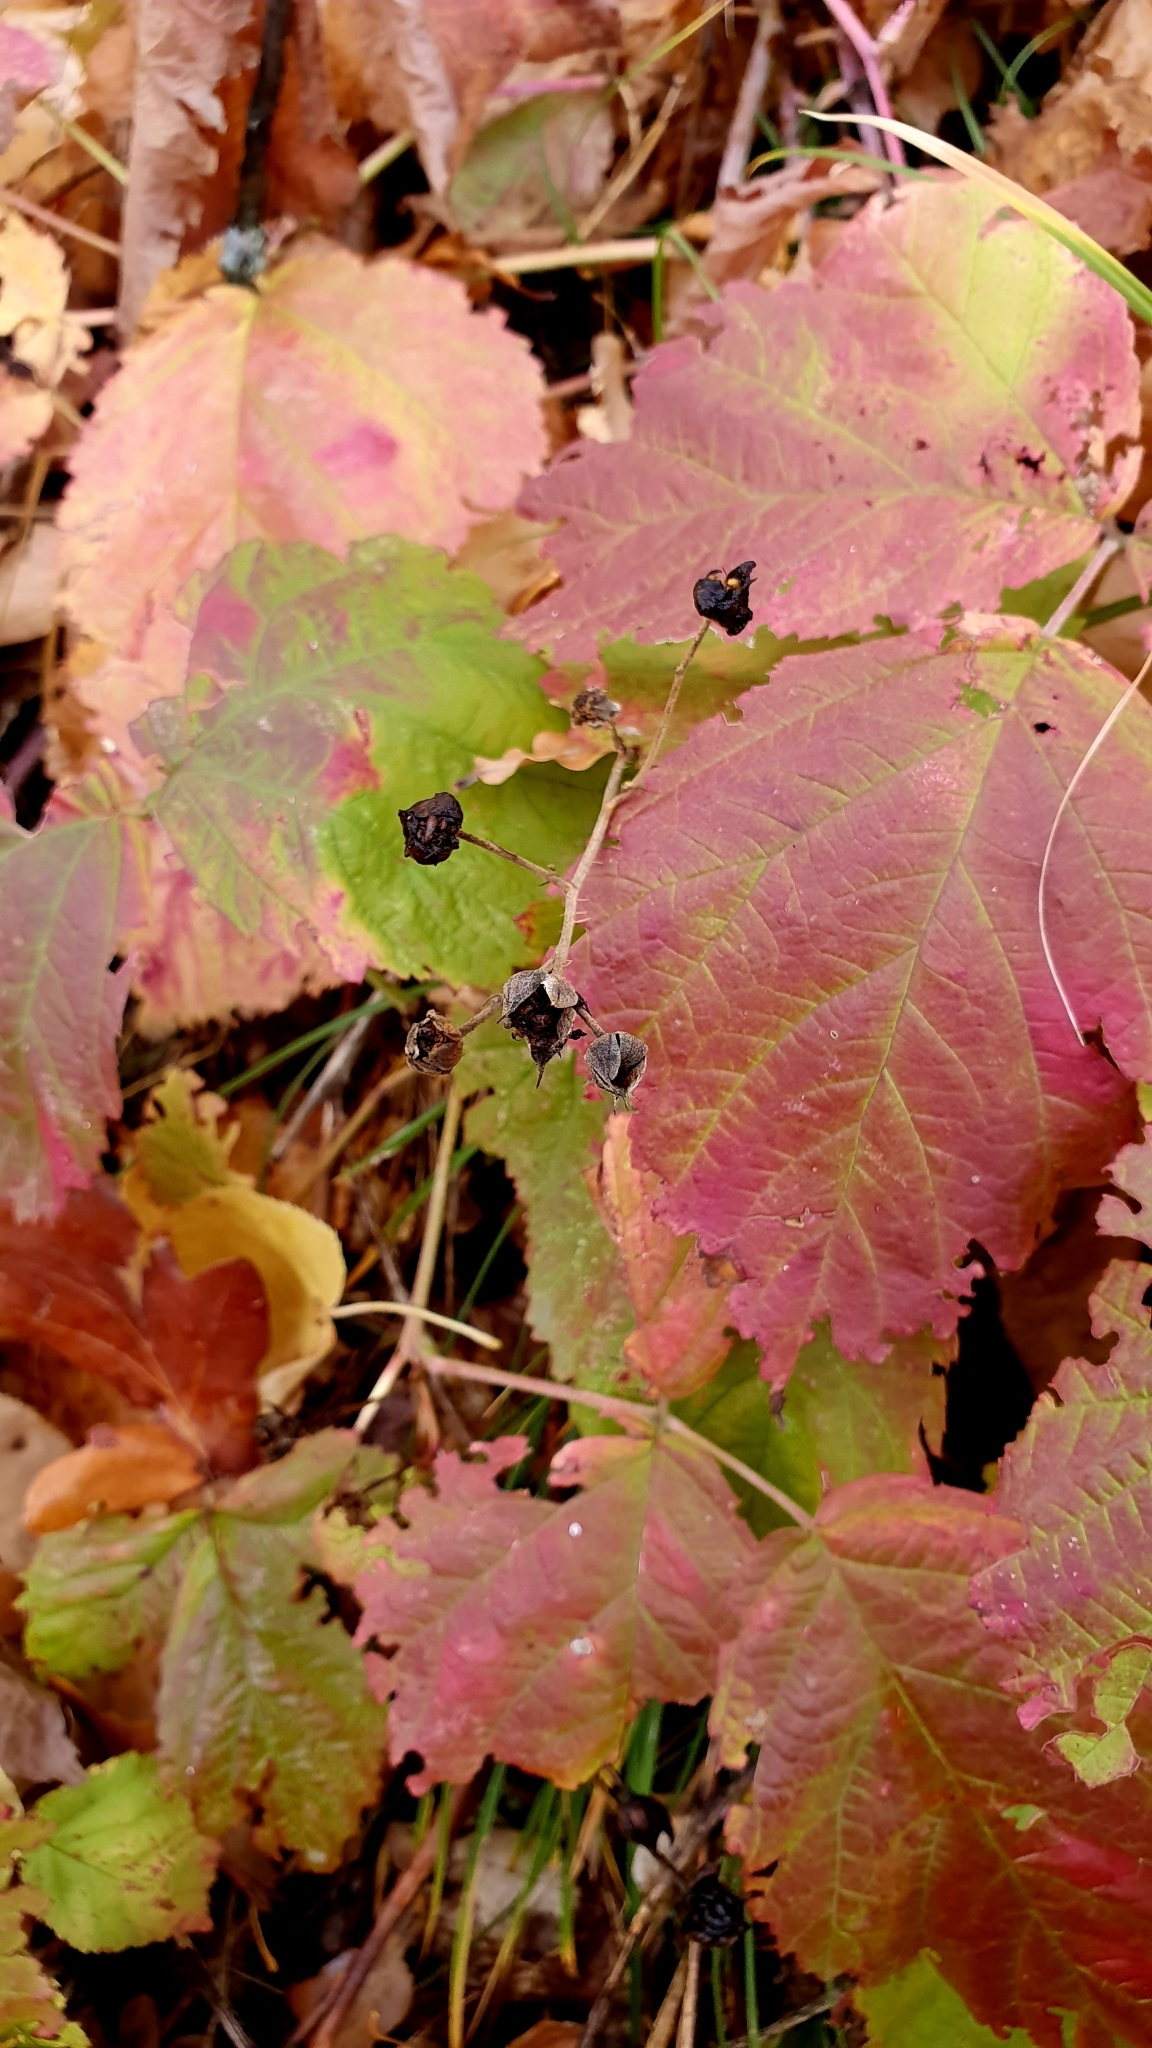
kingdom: Plantae
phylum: Tracheophyta
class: Magnoliopsida
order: Rosales
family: Rosaceae
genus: Rubus
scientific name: Rubus caesius
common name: Dewberry
